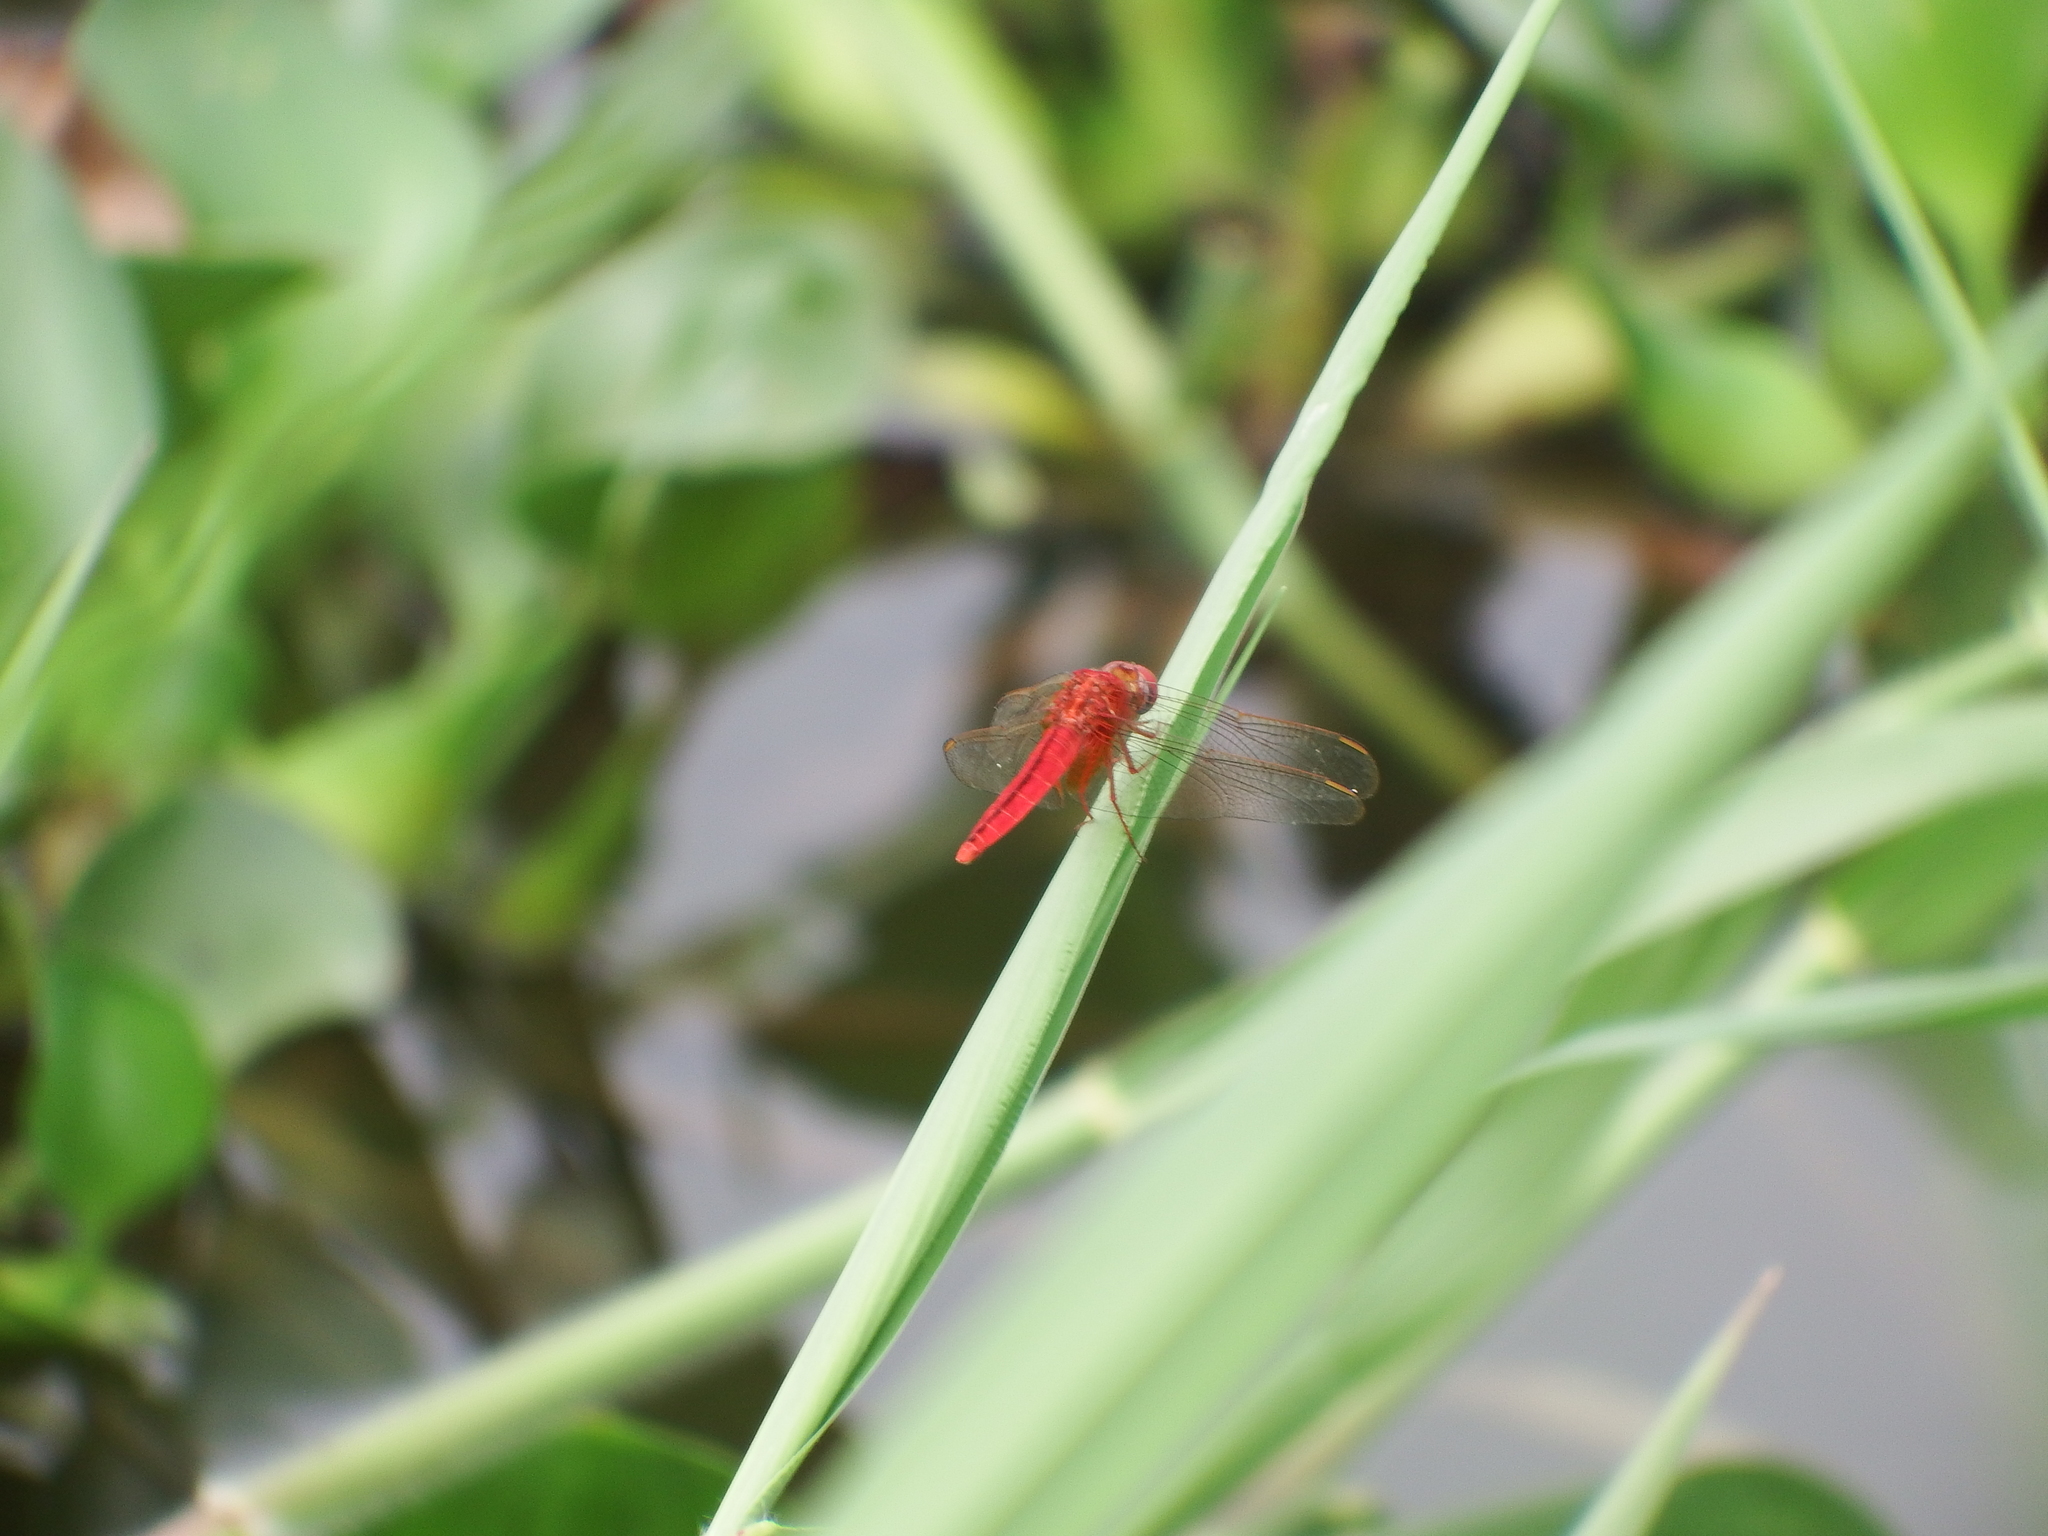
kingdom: Animalia
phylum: Arthropoda
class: Insecta
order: Odonata
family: Libellulidae
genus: Crocothemis
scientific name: Crocothemis servilia
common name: Scarlet skimmer
